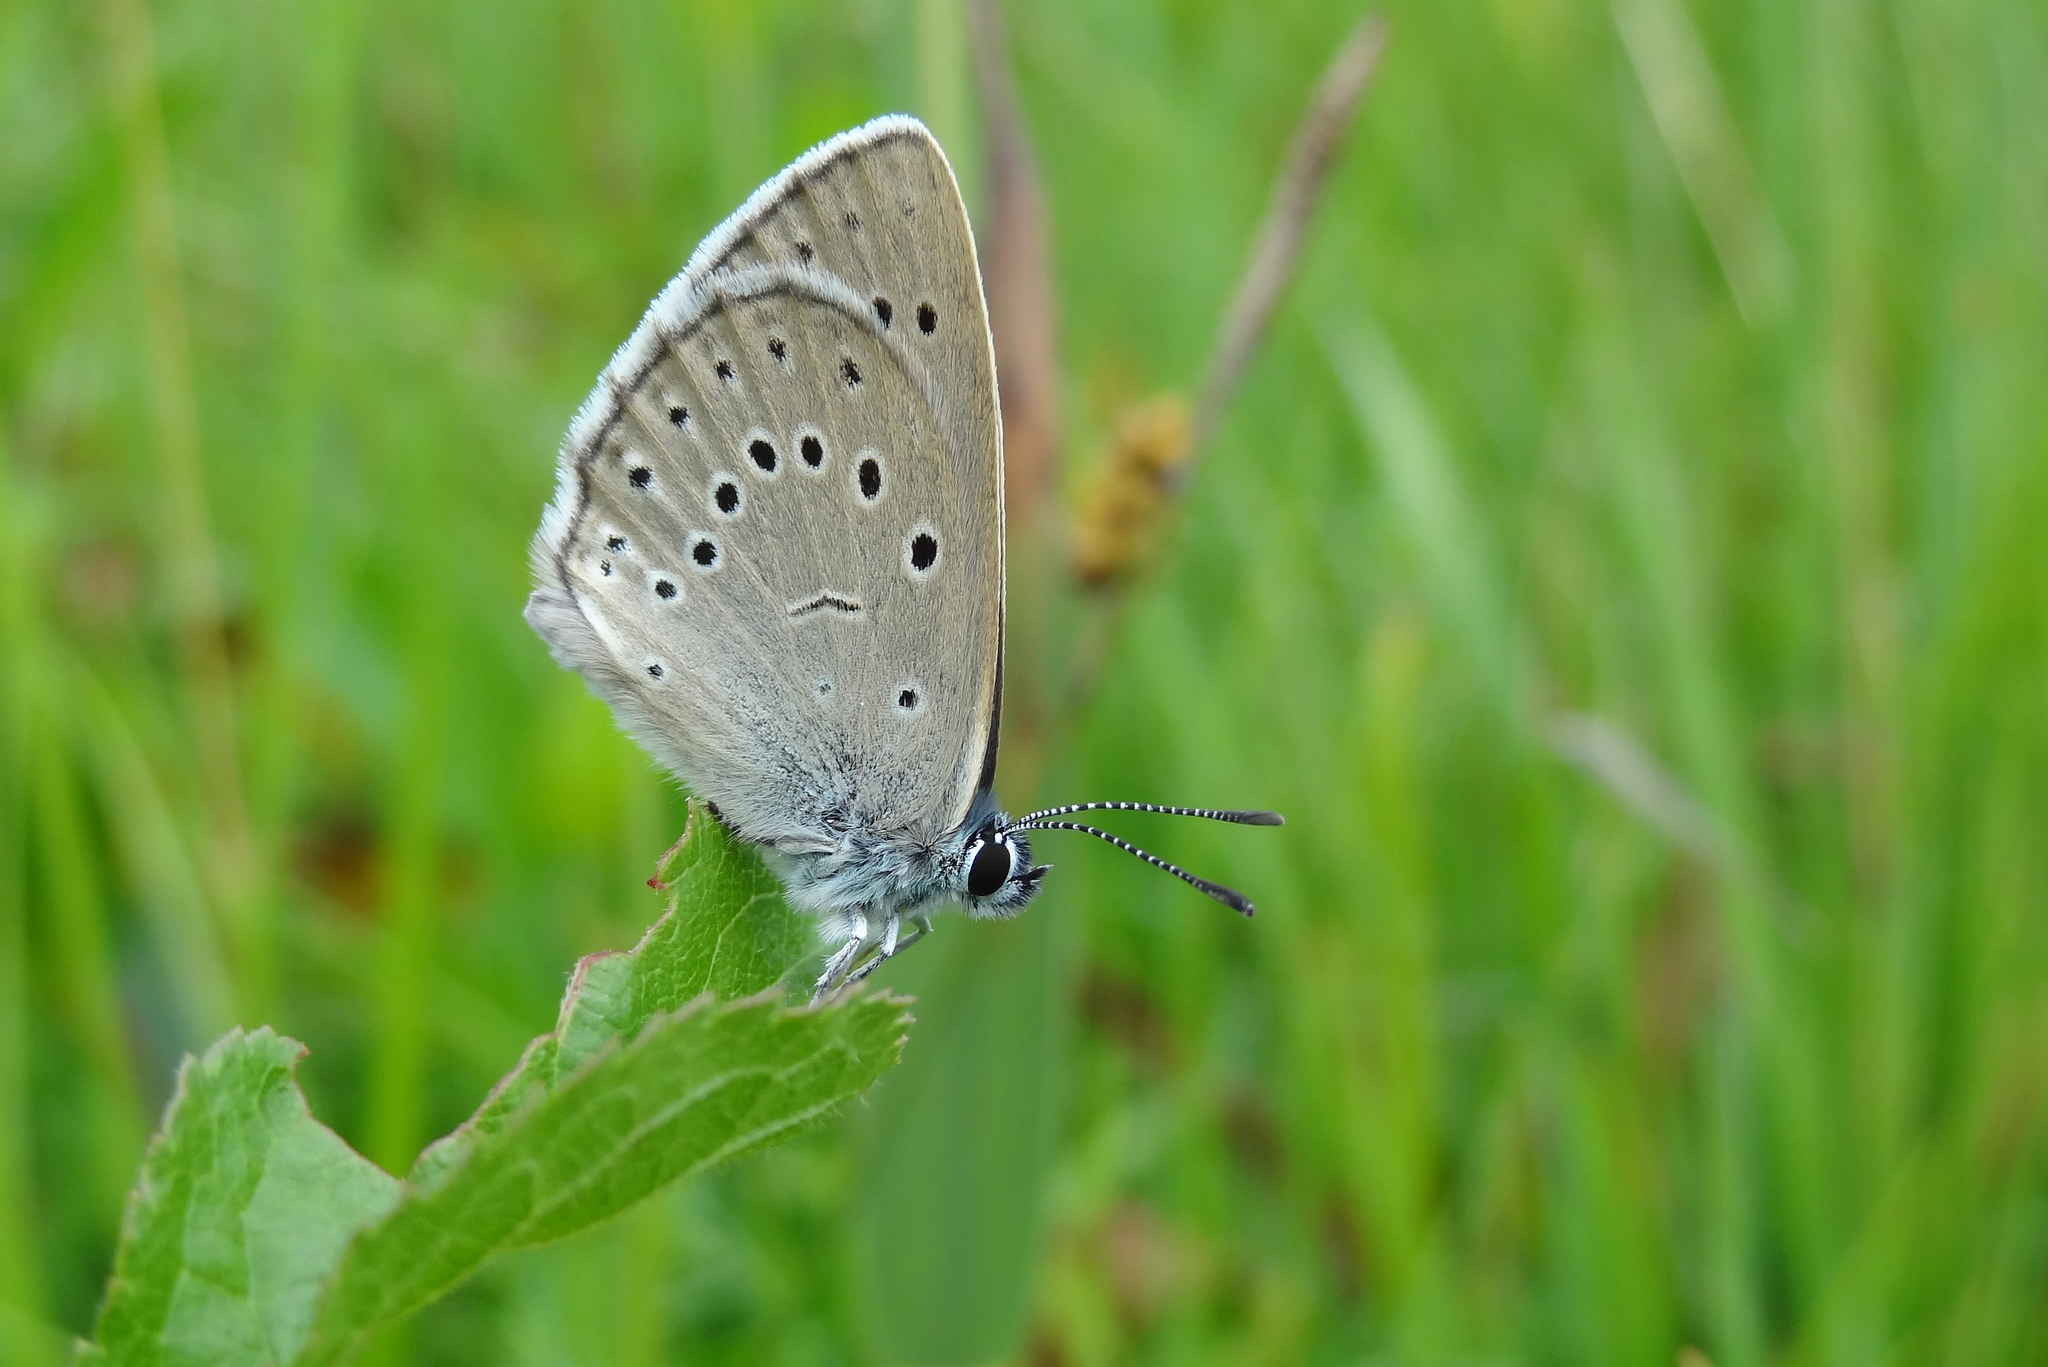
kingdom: Animalia
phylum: Arthropoda
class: Insecta
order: Lepidoptera
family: Lycaenidae
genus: Phengaris
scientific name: Phengaris teleius
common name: Scarce large blue
